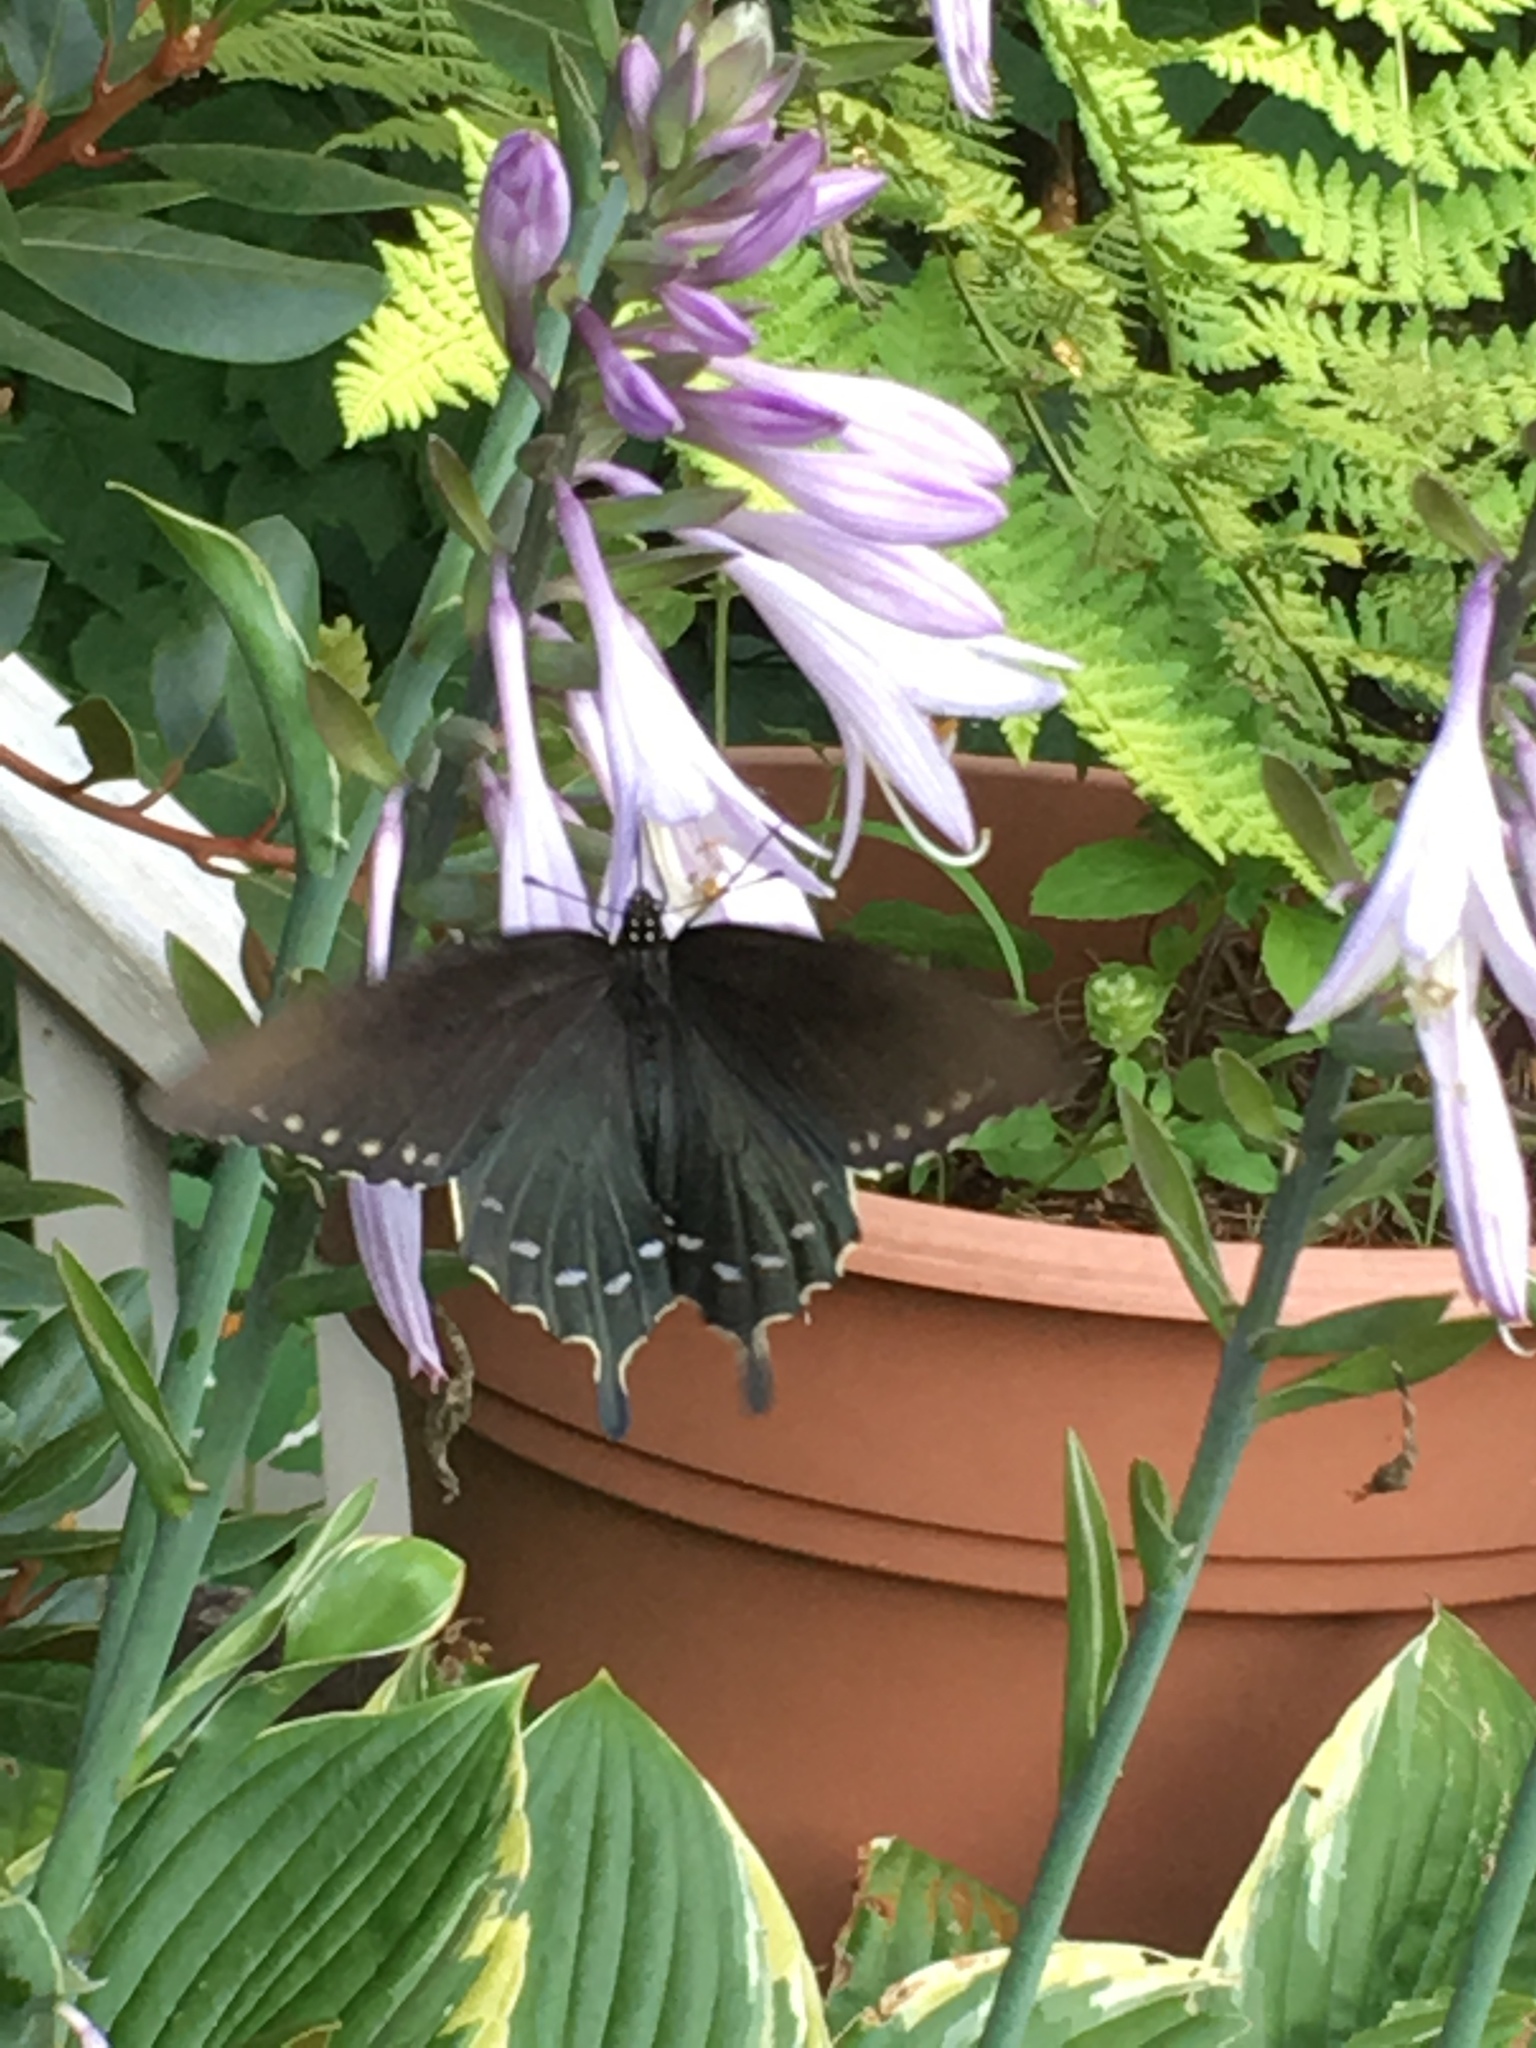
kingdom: Animalia
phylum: Arthropoda
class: Insecta
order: Lepidoptera
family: Papilionidae
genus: Battus
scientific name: Battus philenor
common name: Pipevine swallowtail
